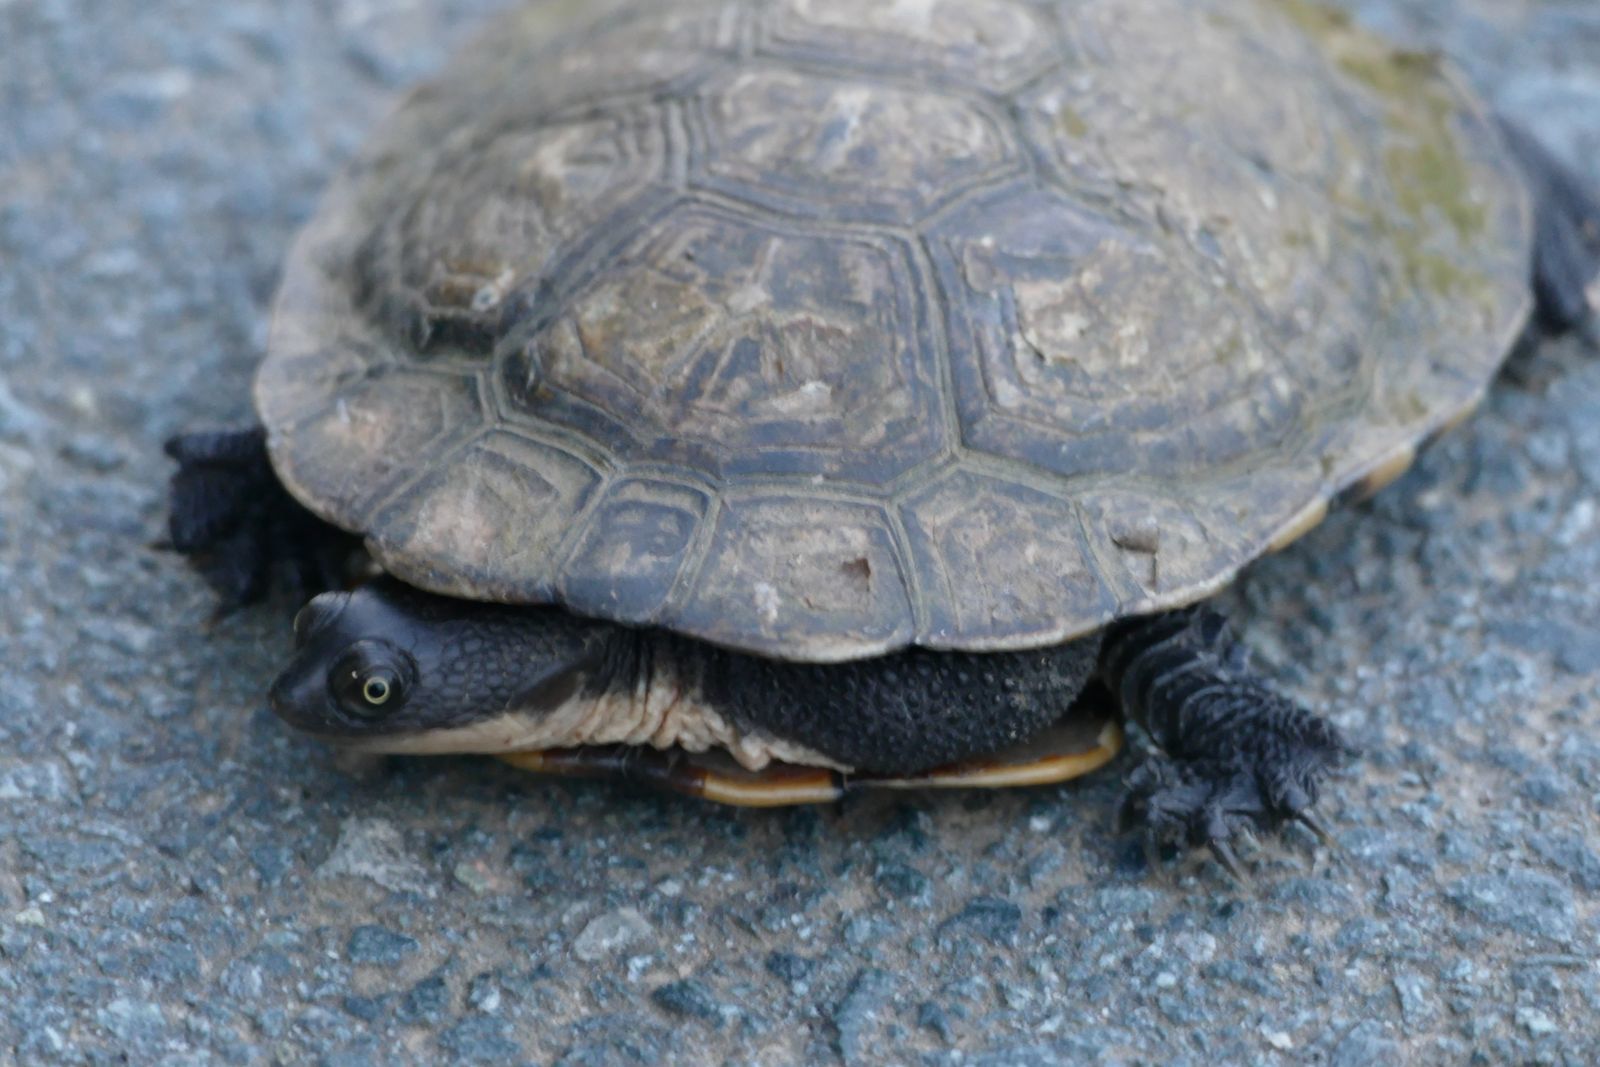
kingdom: Animalia
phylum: Chordata
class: Testudines
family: Chelidae
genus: Chelodina
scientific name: Chelodina longicollis
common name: Eastern snake-necked turtle
